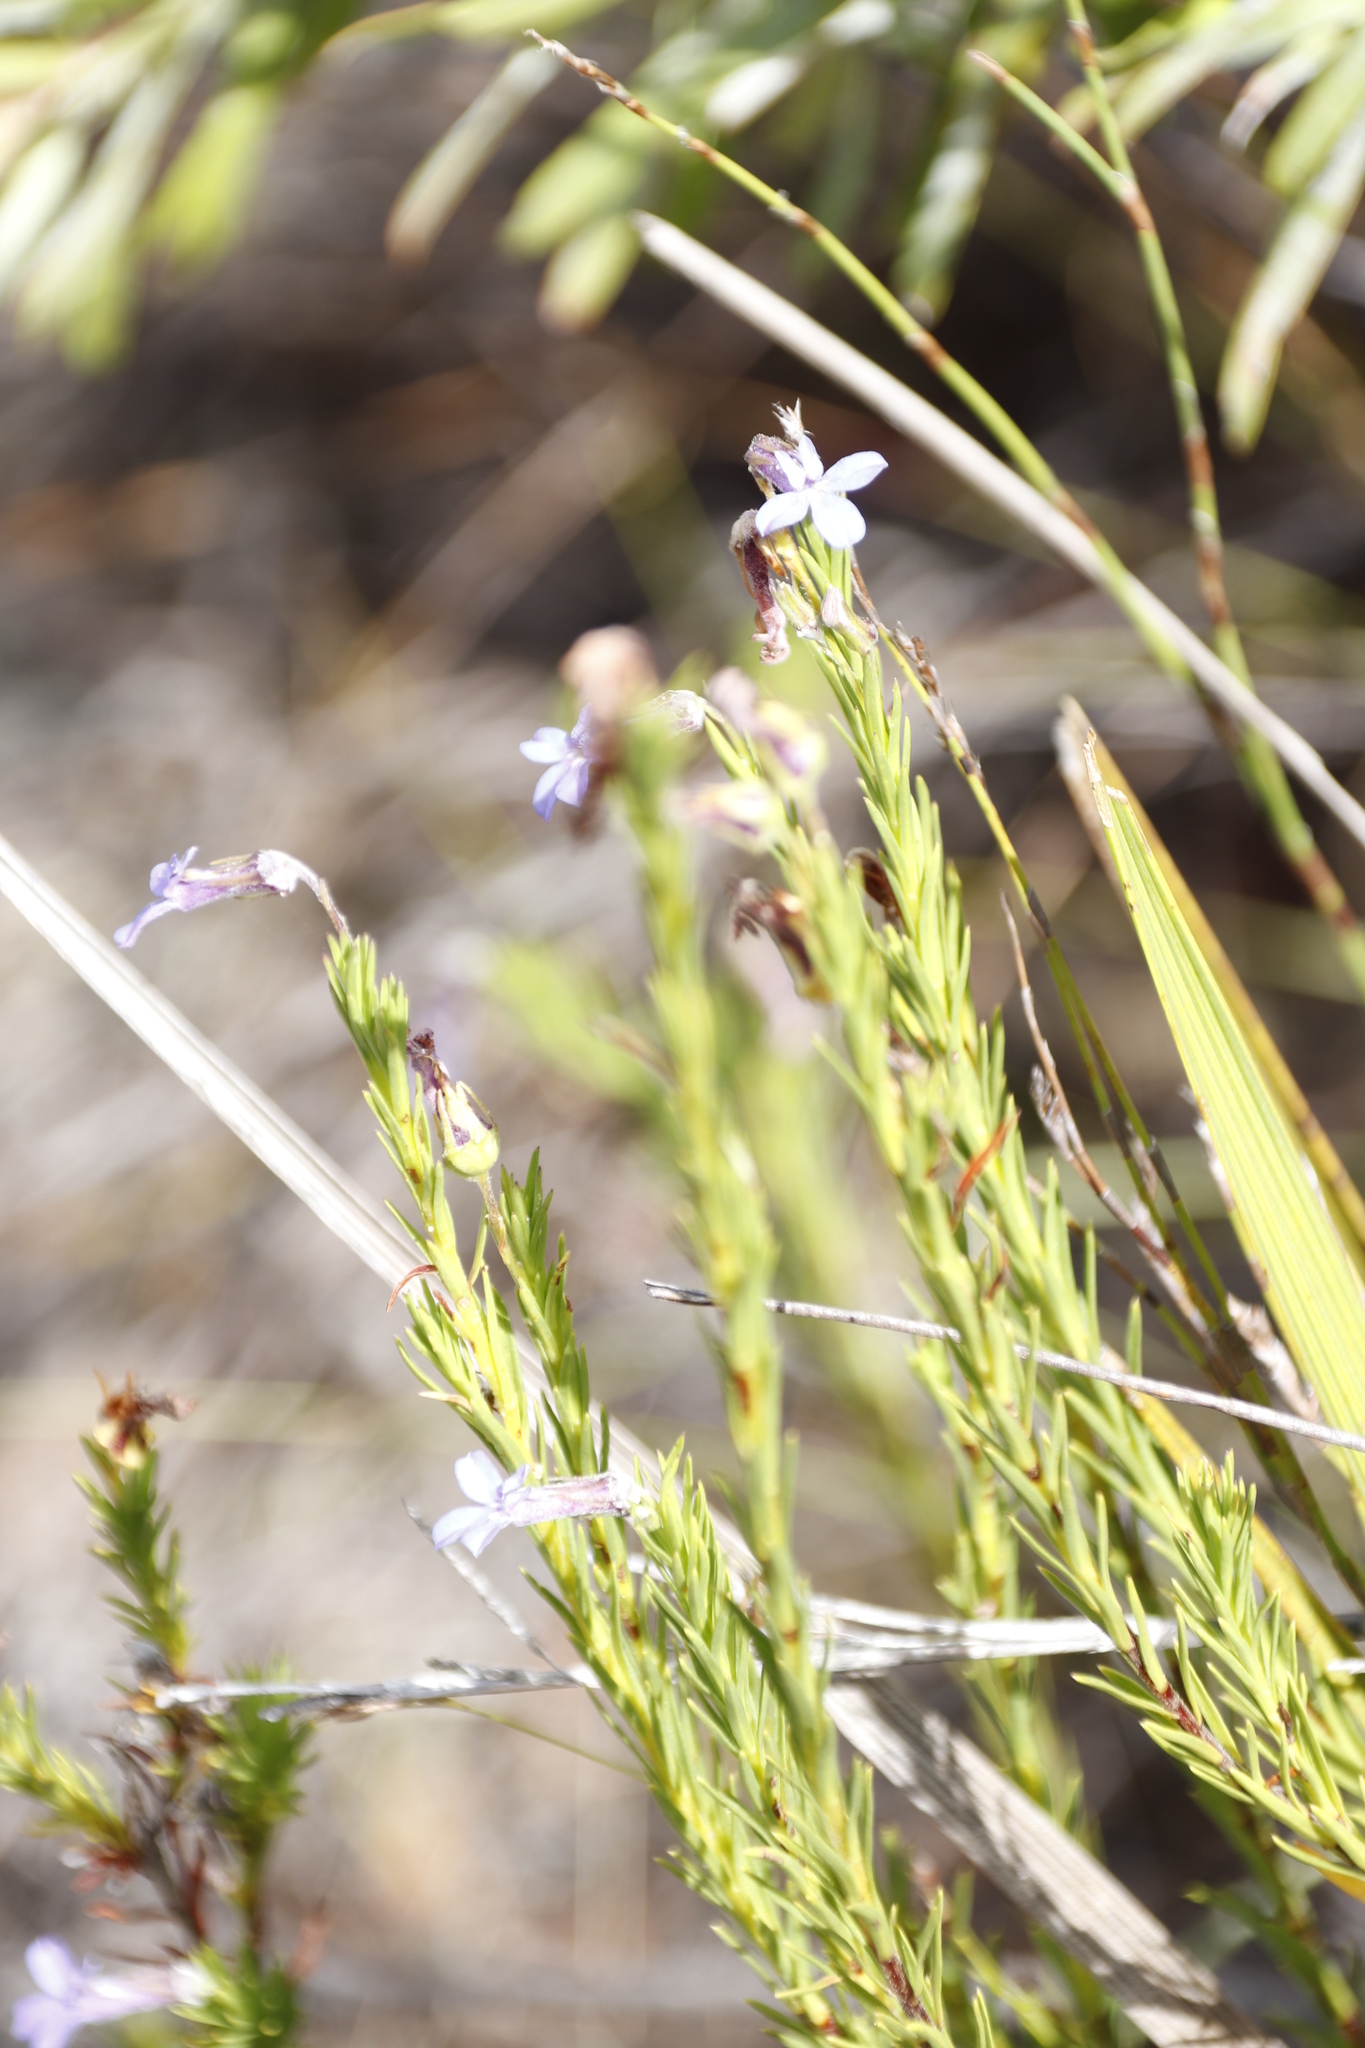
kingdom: Plantae
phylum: Tracheophyta
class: Magnoliopsida
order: Asterales
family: Campanulaceae
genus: Lobelia
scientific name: Lobelia pinifolia
